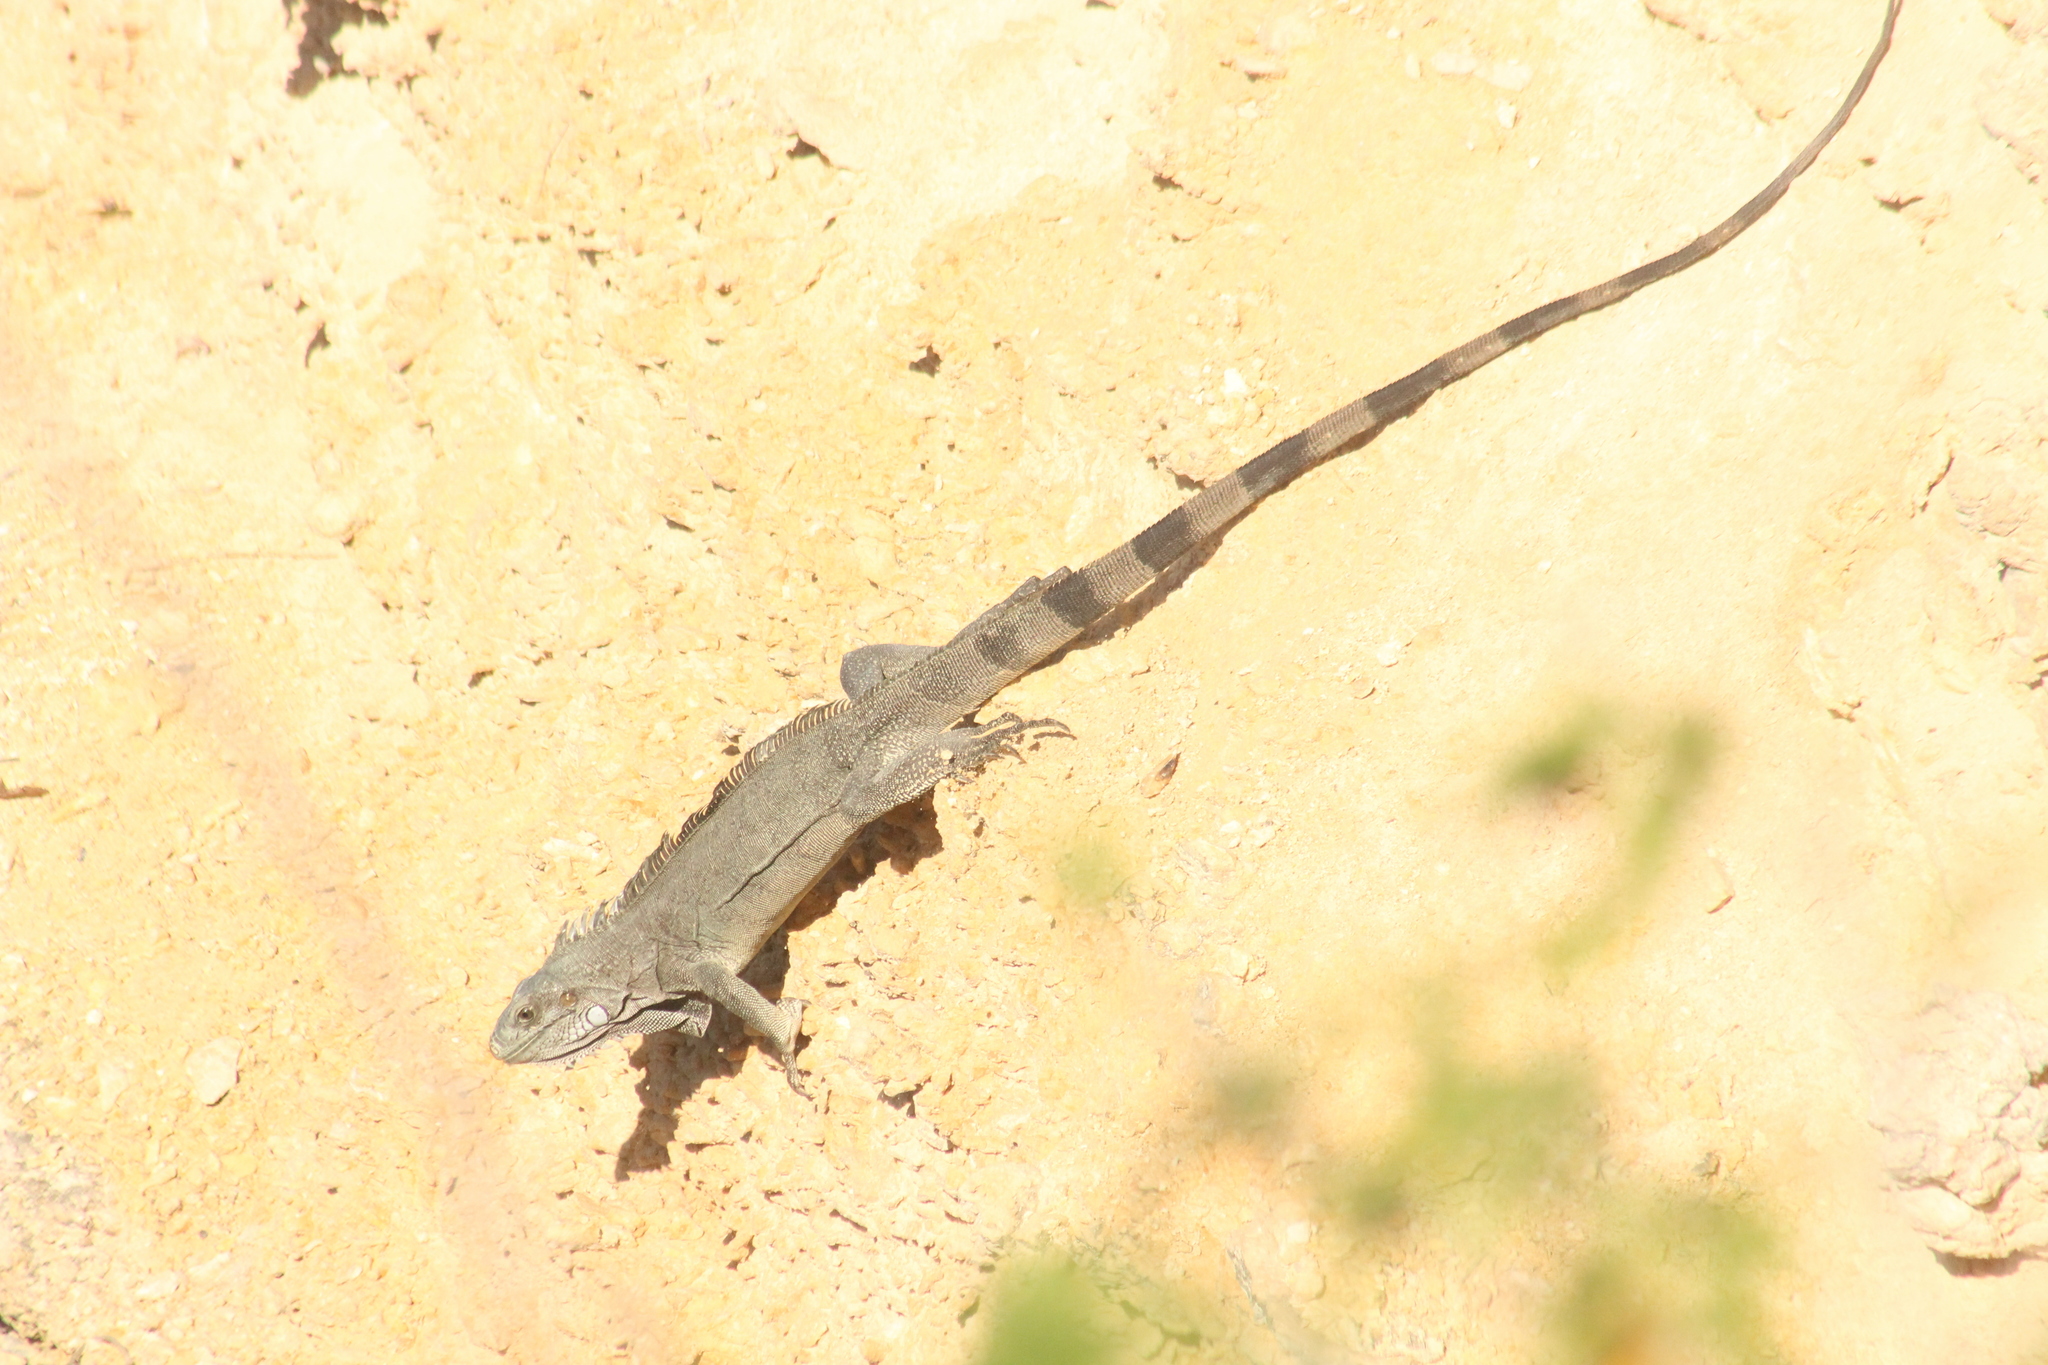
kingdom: Animalia
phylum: Chordata
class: Squamata
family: Iguanidae
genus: Iguana
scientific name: Iguana iguana
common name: Green iguana
